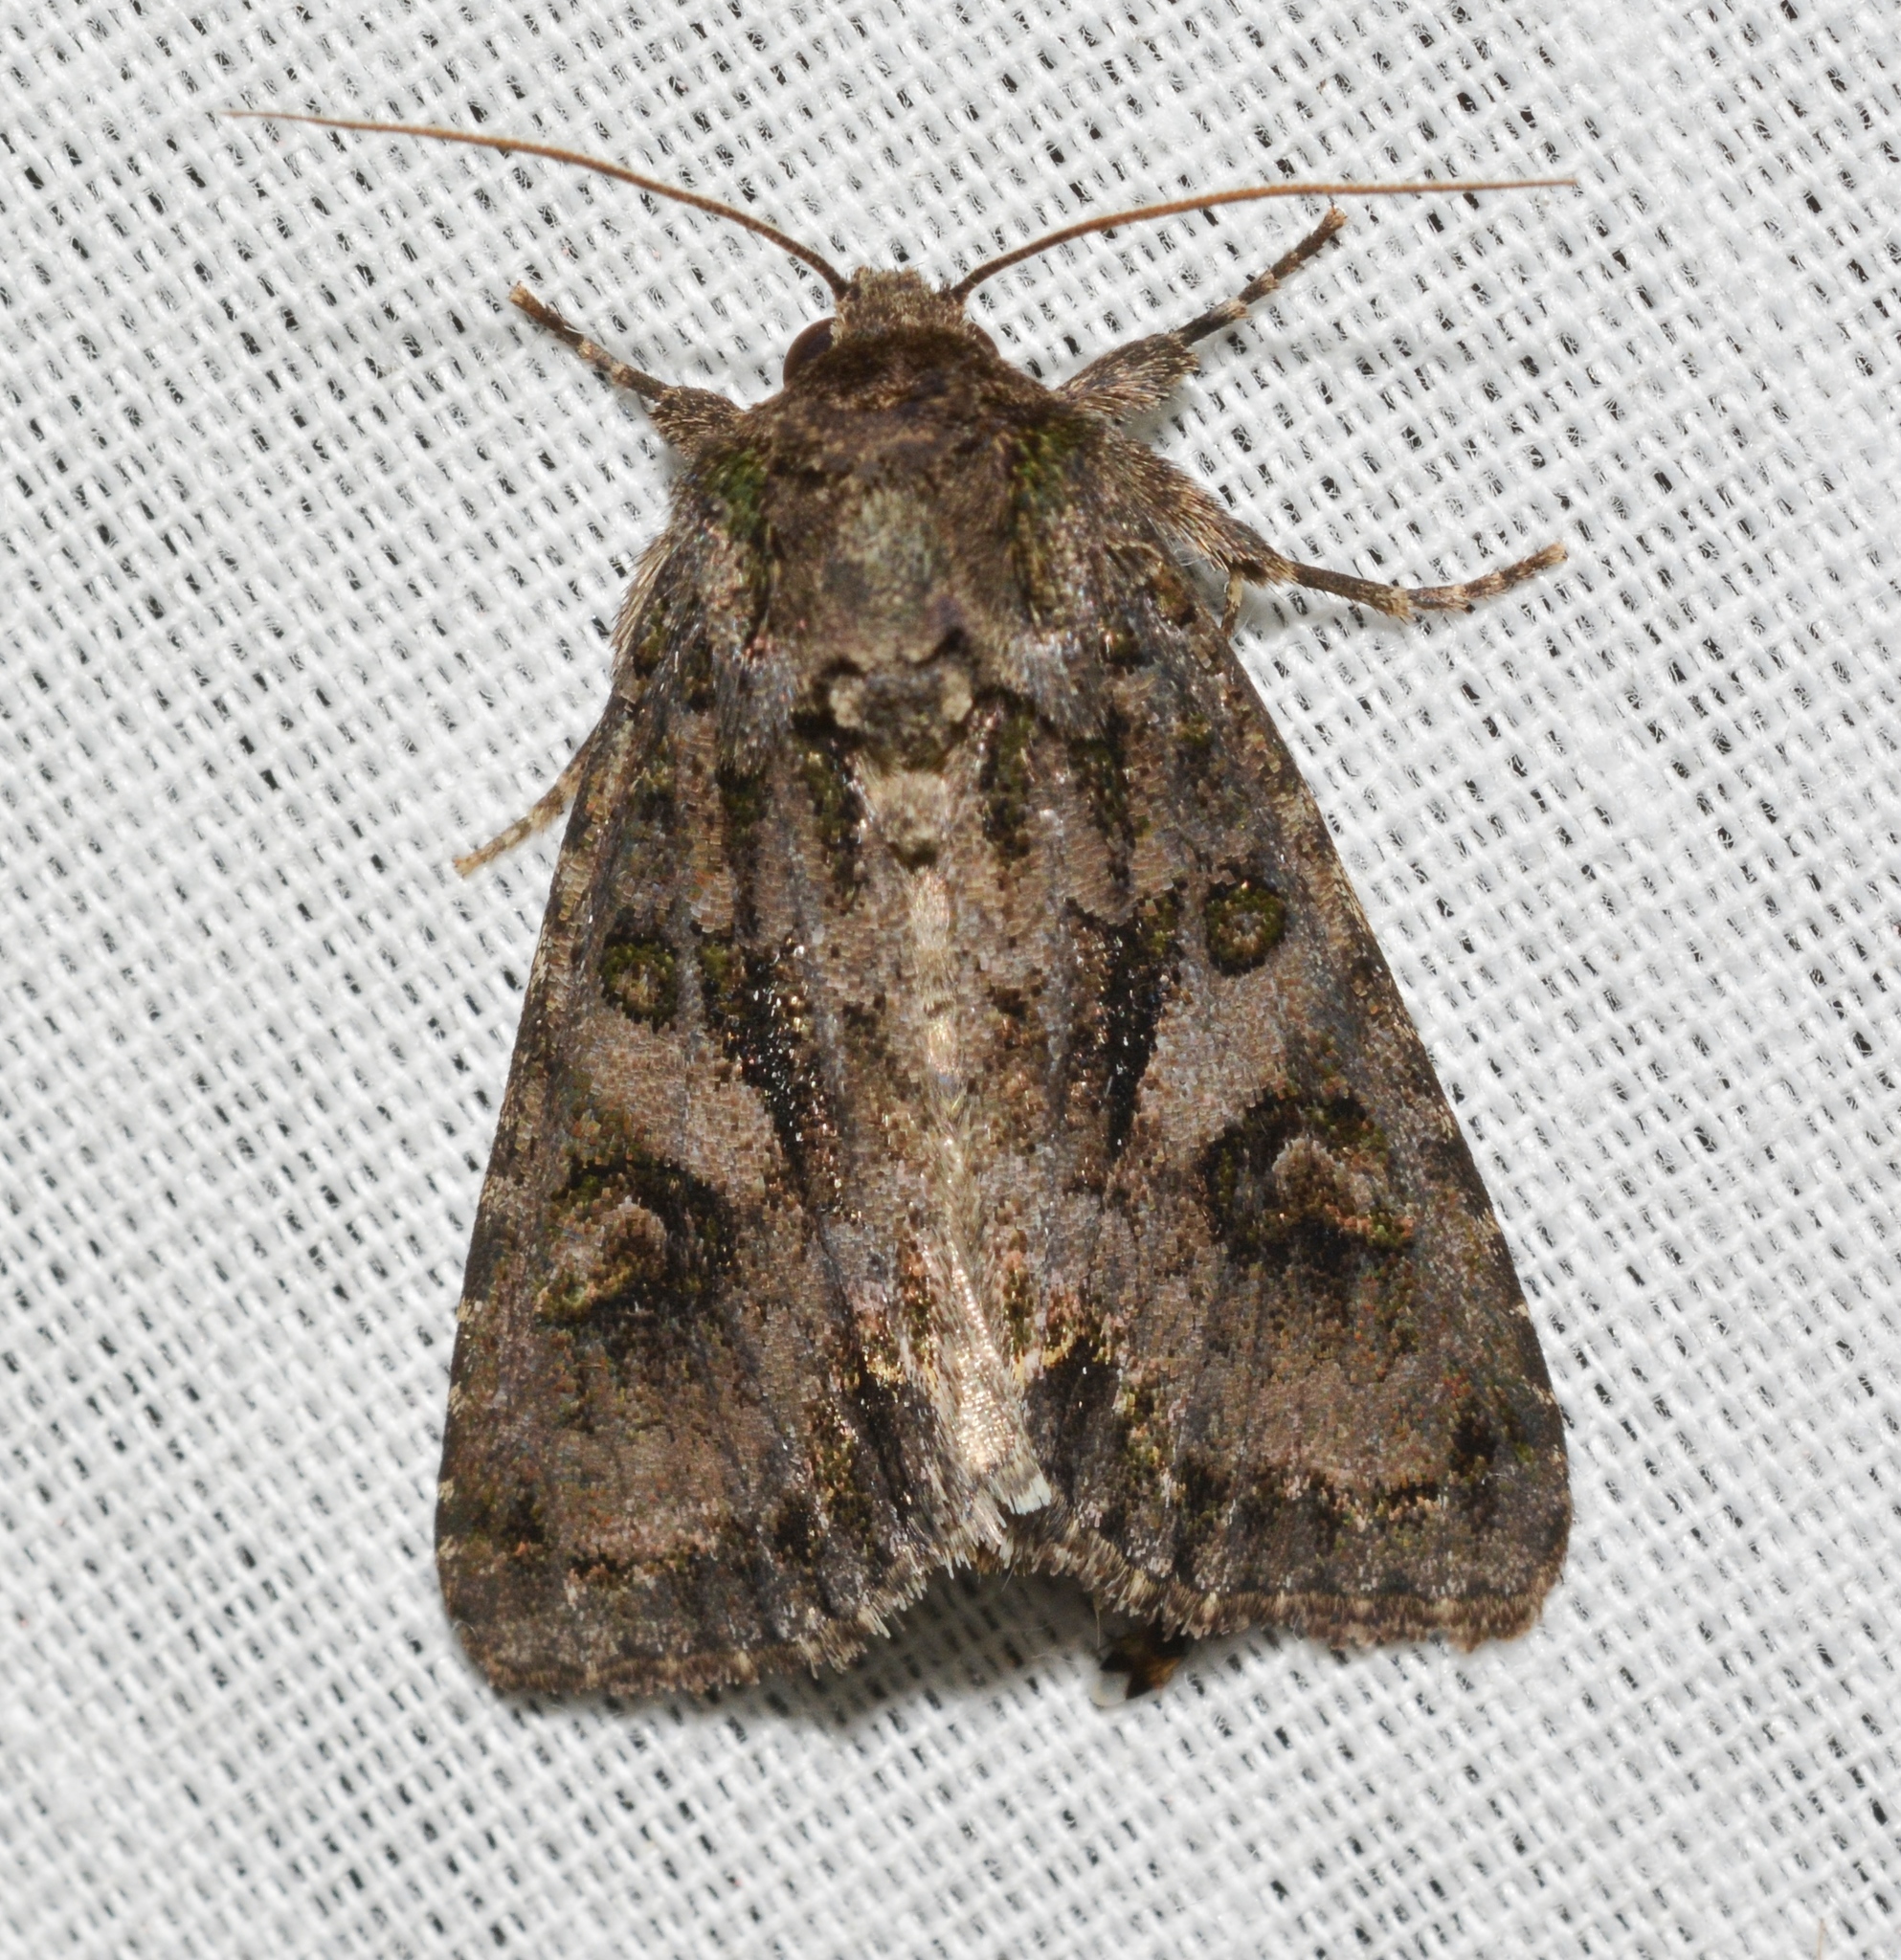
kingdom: Animalia
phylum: Arthropoda
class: Insecta
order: Lepidoptera
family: Noctuidae
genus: Trachea
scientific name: Trachea delicata
